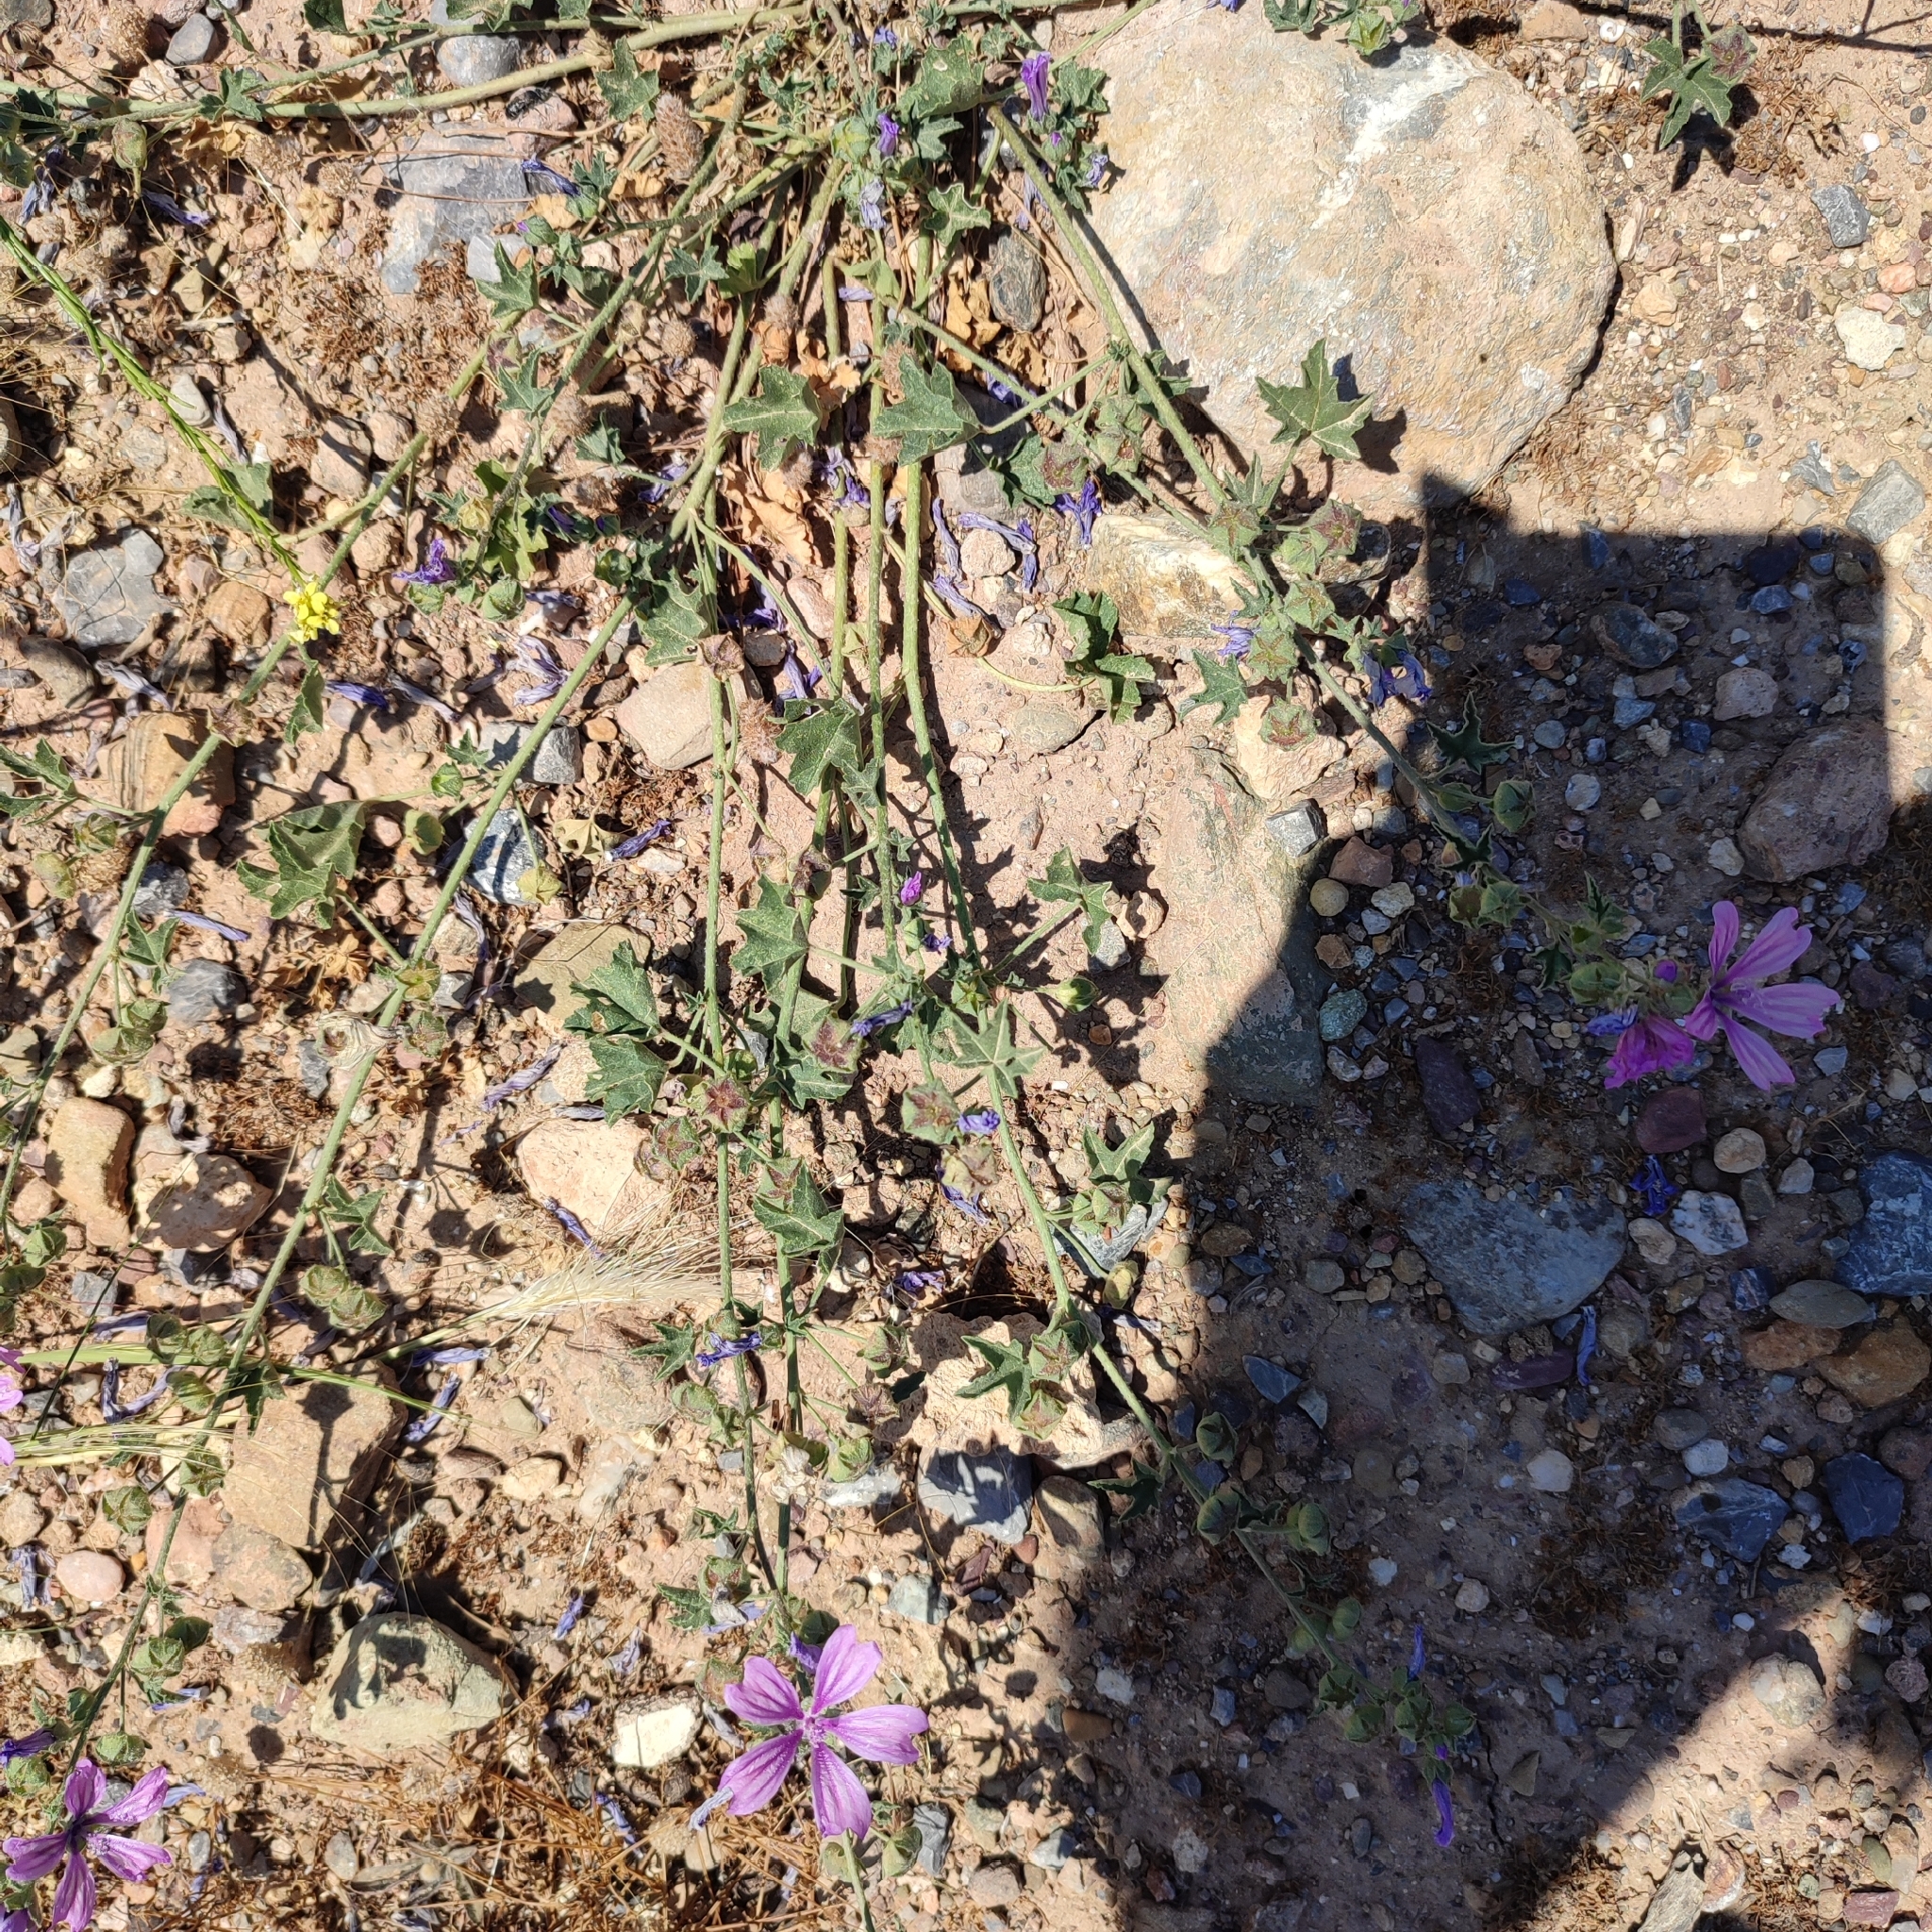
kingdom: Plantae
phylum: Tracheophyta
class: Magnoliopsida
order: Malvales
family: Malvaceae
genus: Malva
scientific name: Malva sylvestris
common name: Common mallow
